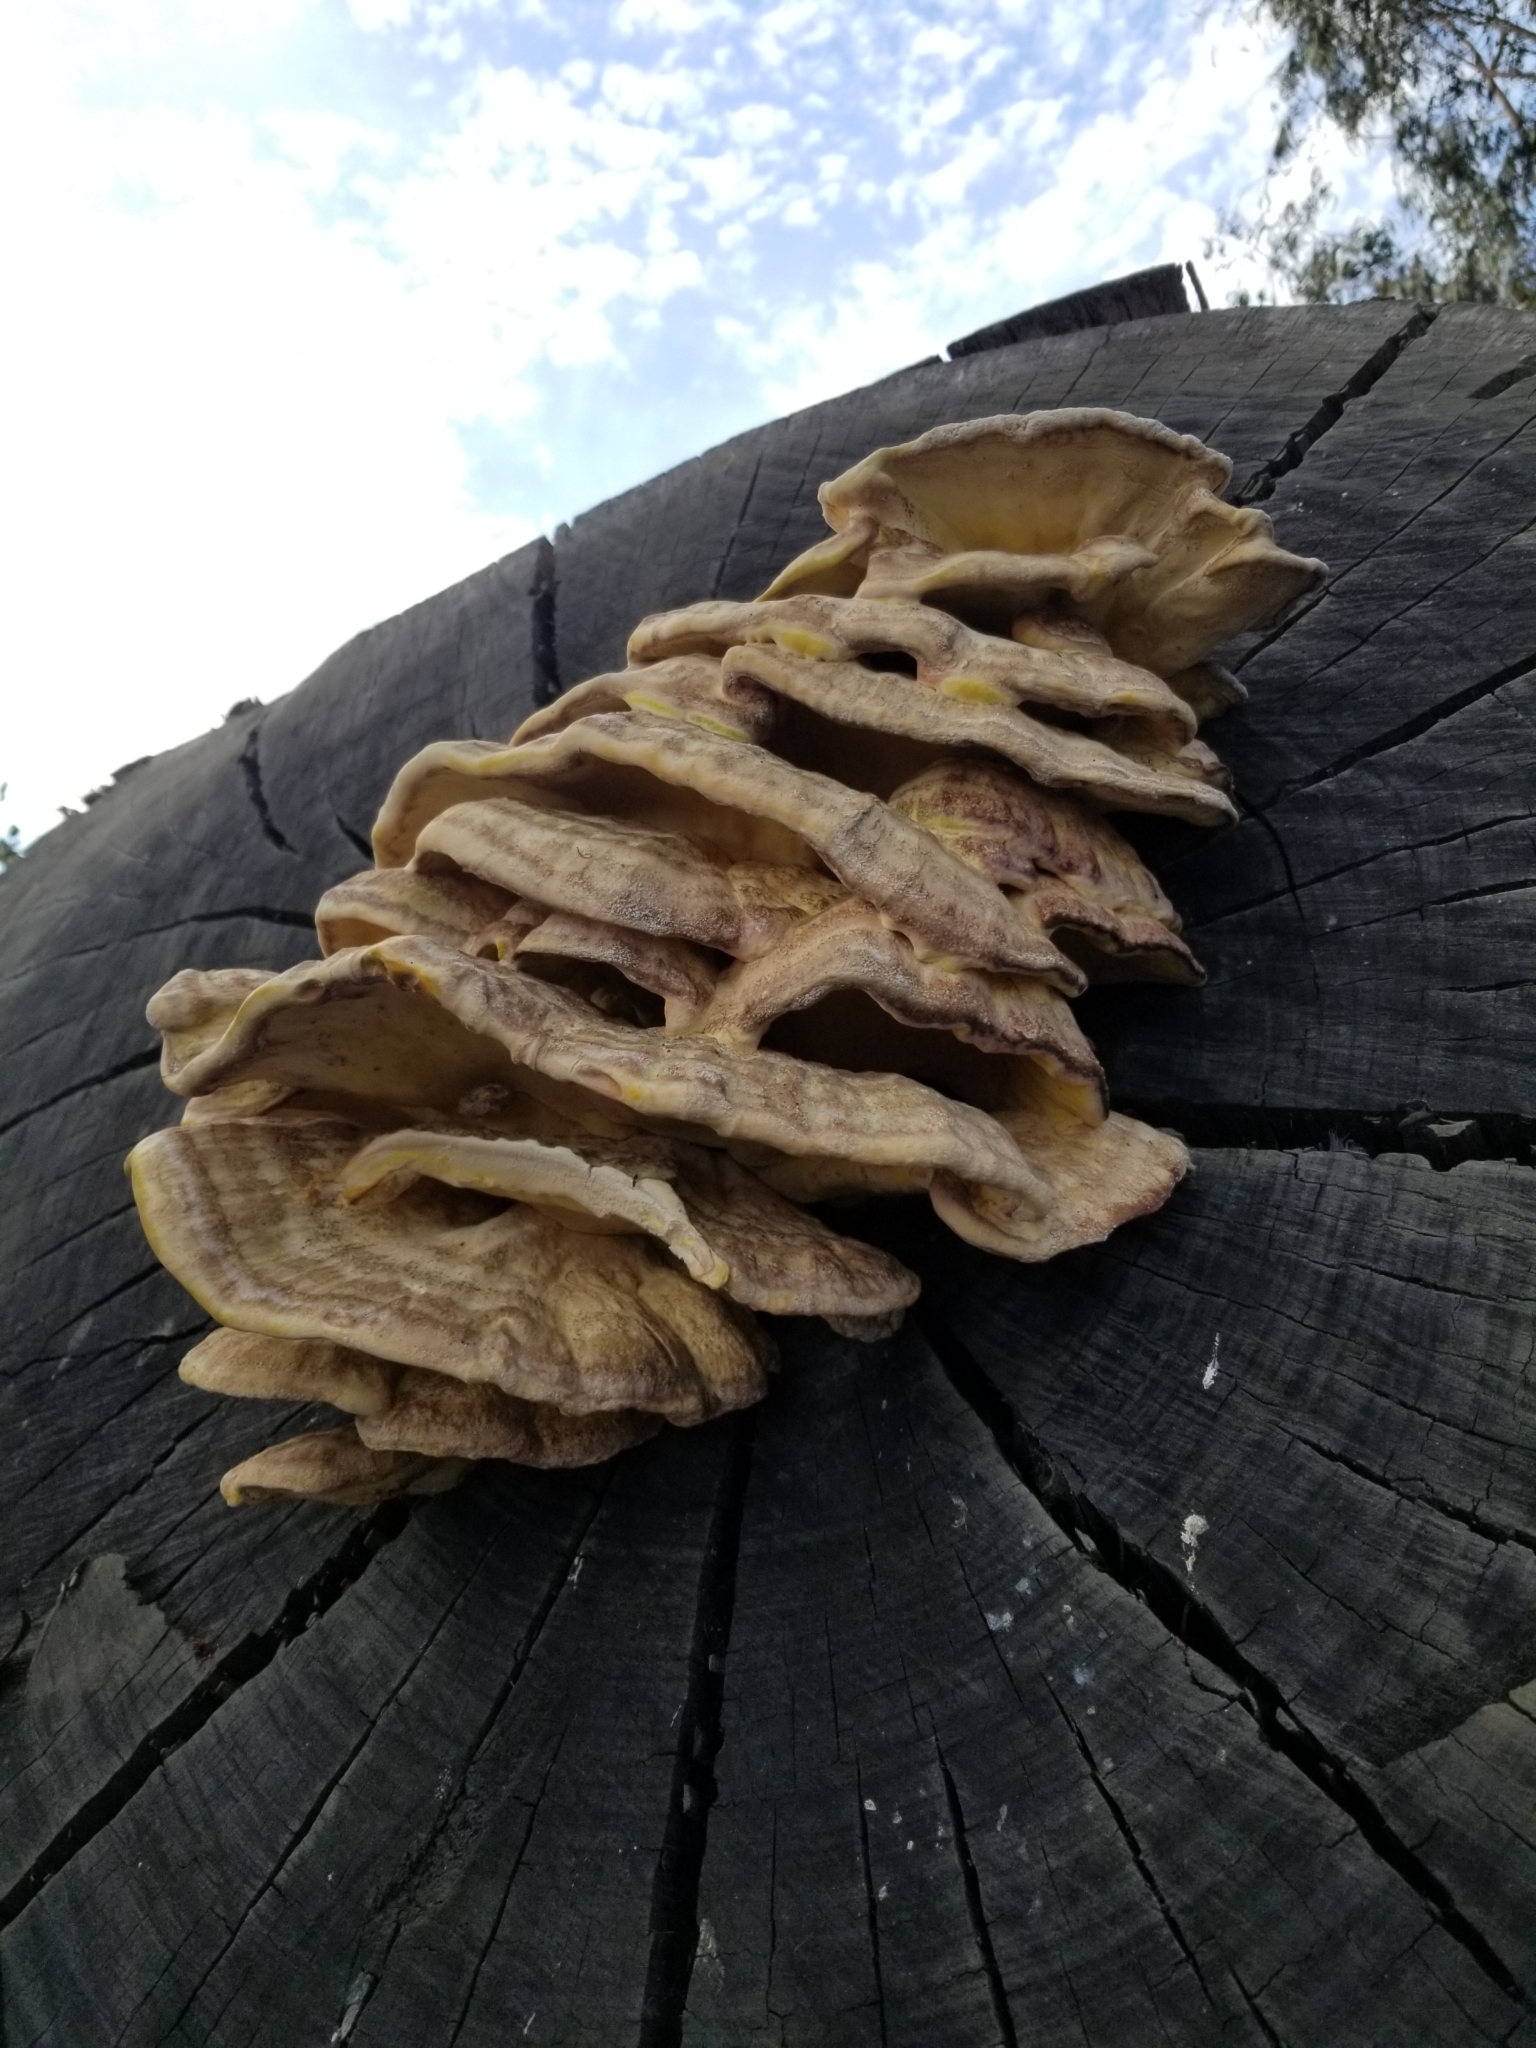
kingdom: Fungi
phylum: Basidiomycota
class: Agaricomycetes
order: Polyporales
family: Laetiporaceae
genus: Laetiporus
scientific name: Laetiporus gilbertsonii
